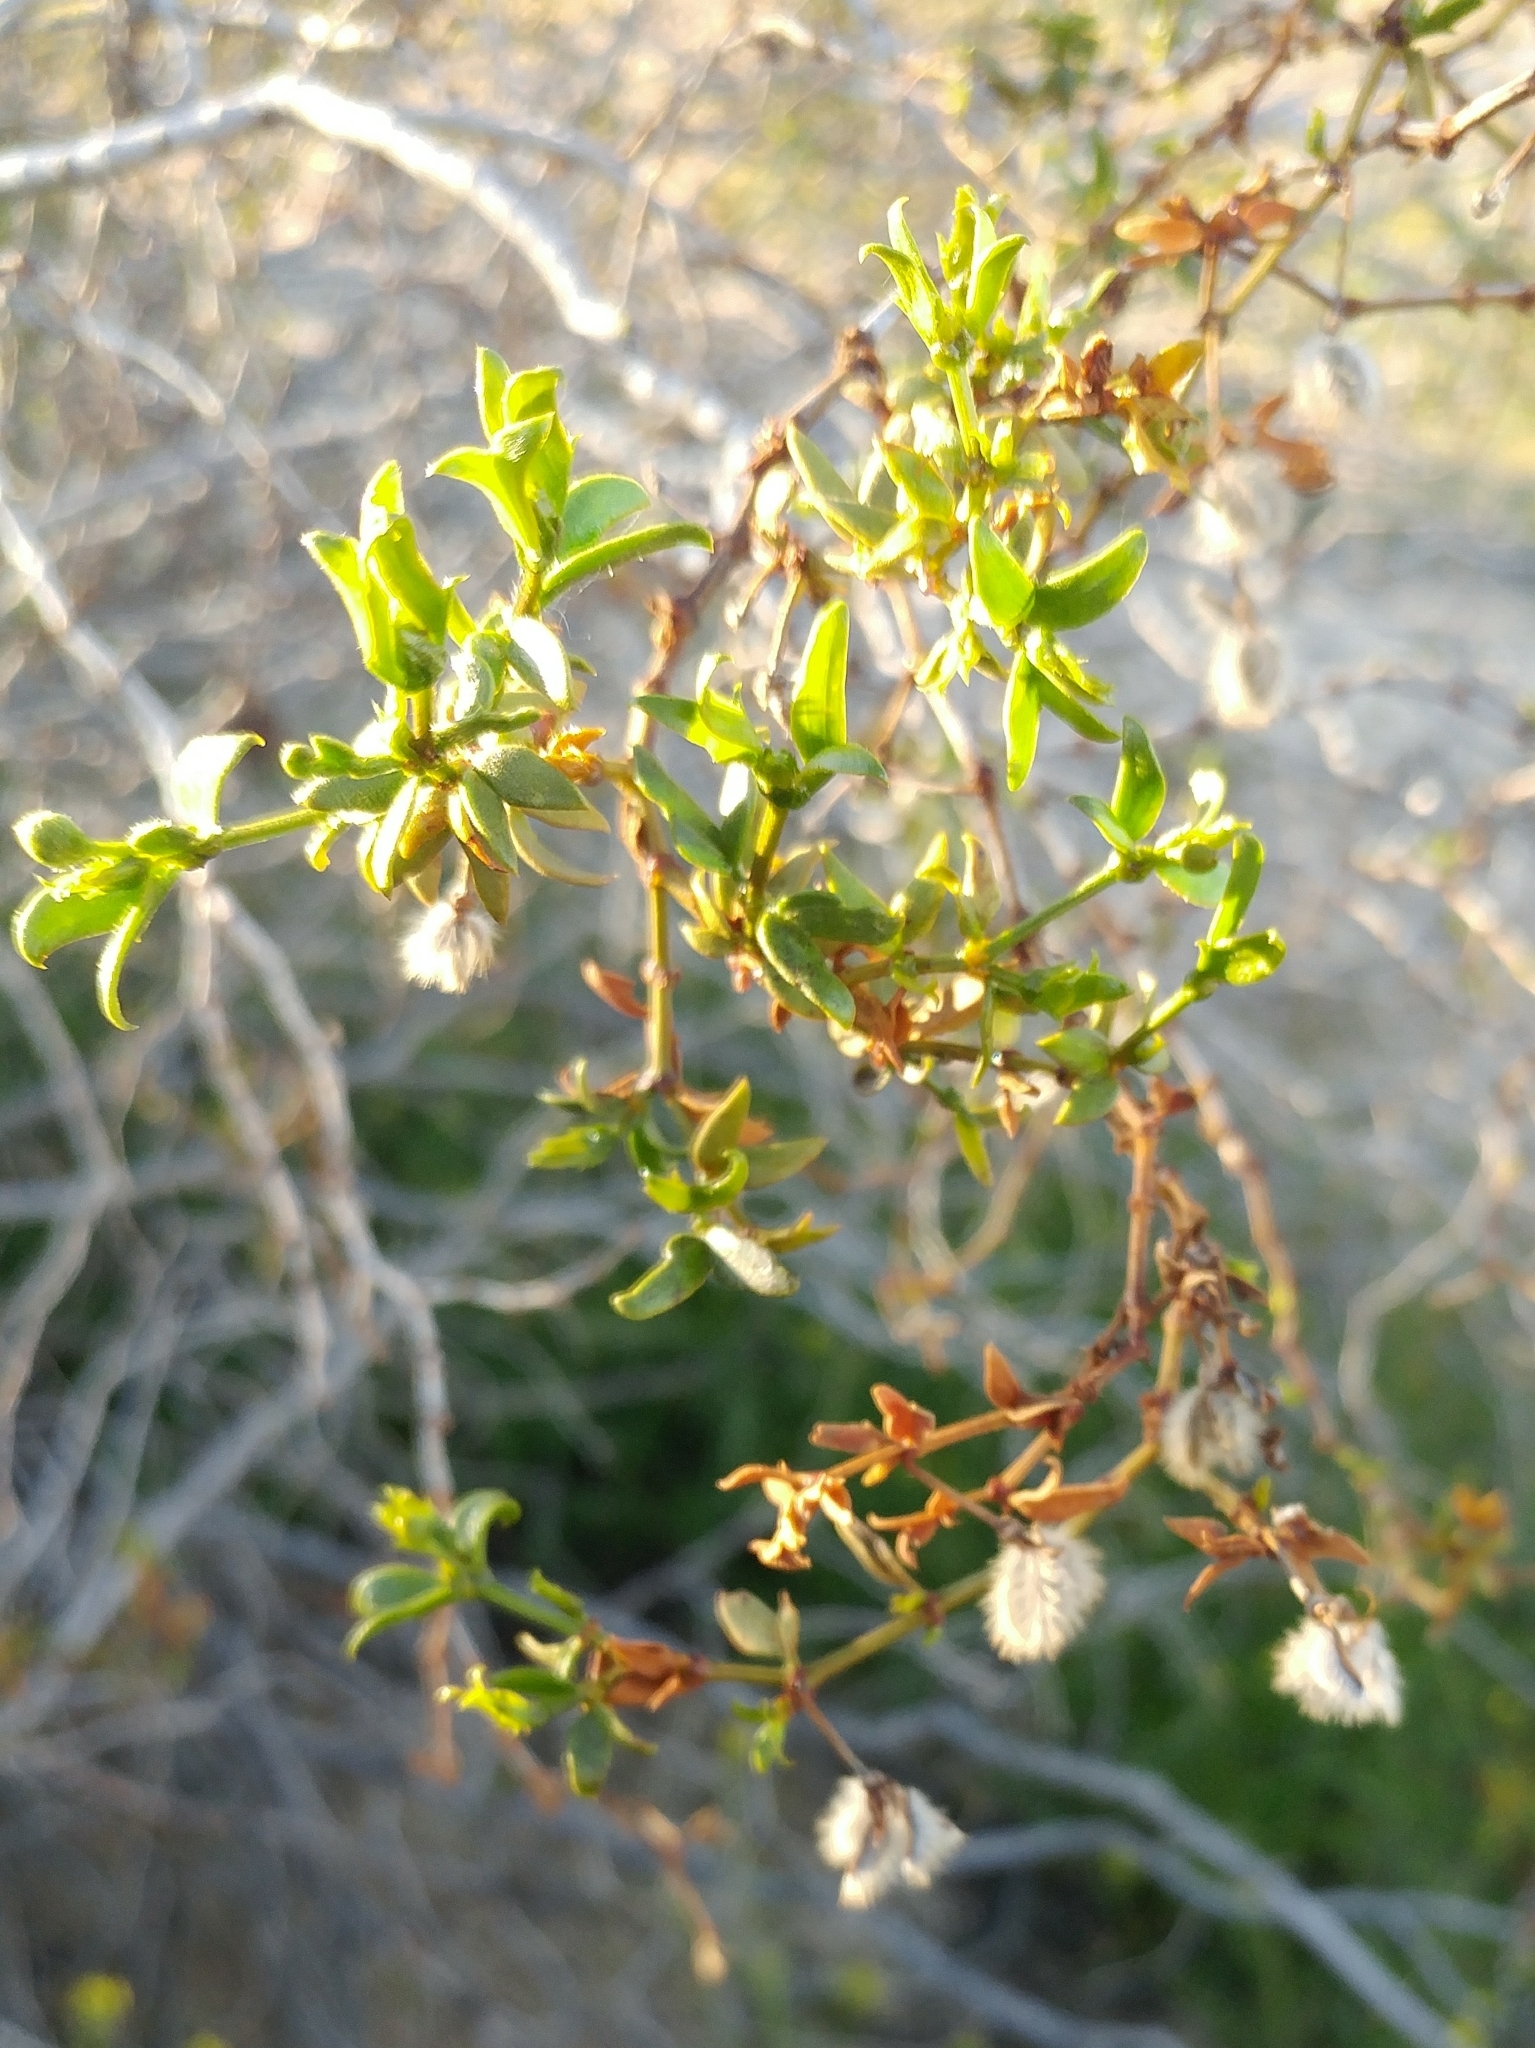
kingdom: Plantae
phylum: Tracheophyta
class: Magnoliopsida
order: Zygophyllales
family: Zygophyllaceae
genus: Larrea
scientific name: Larrea tridentata
